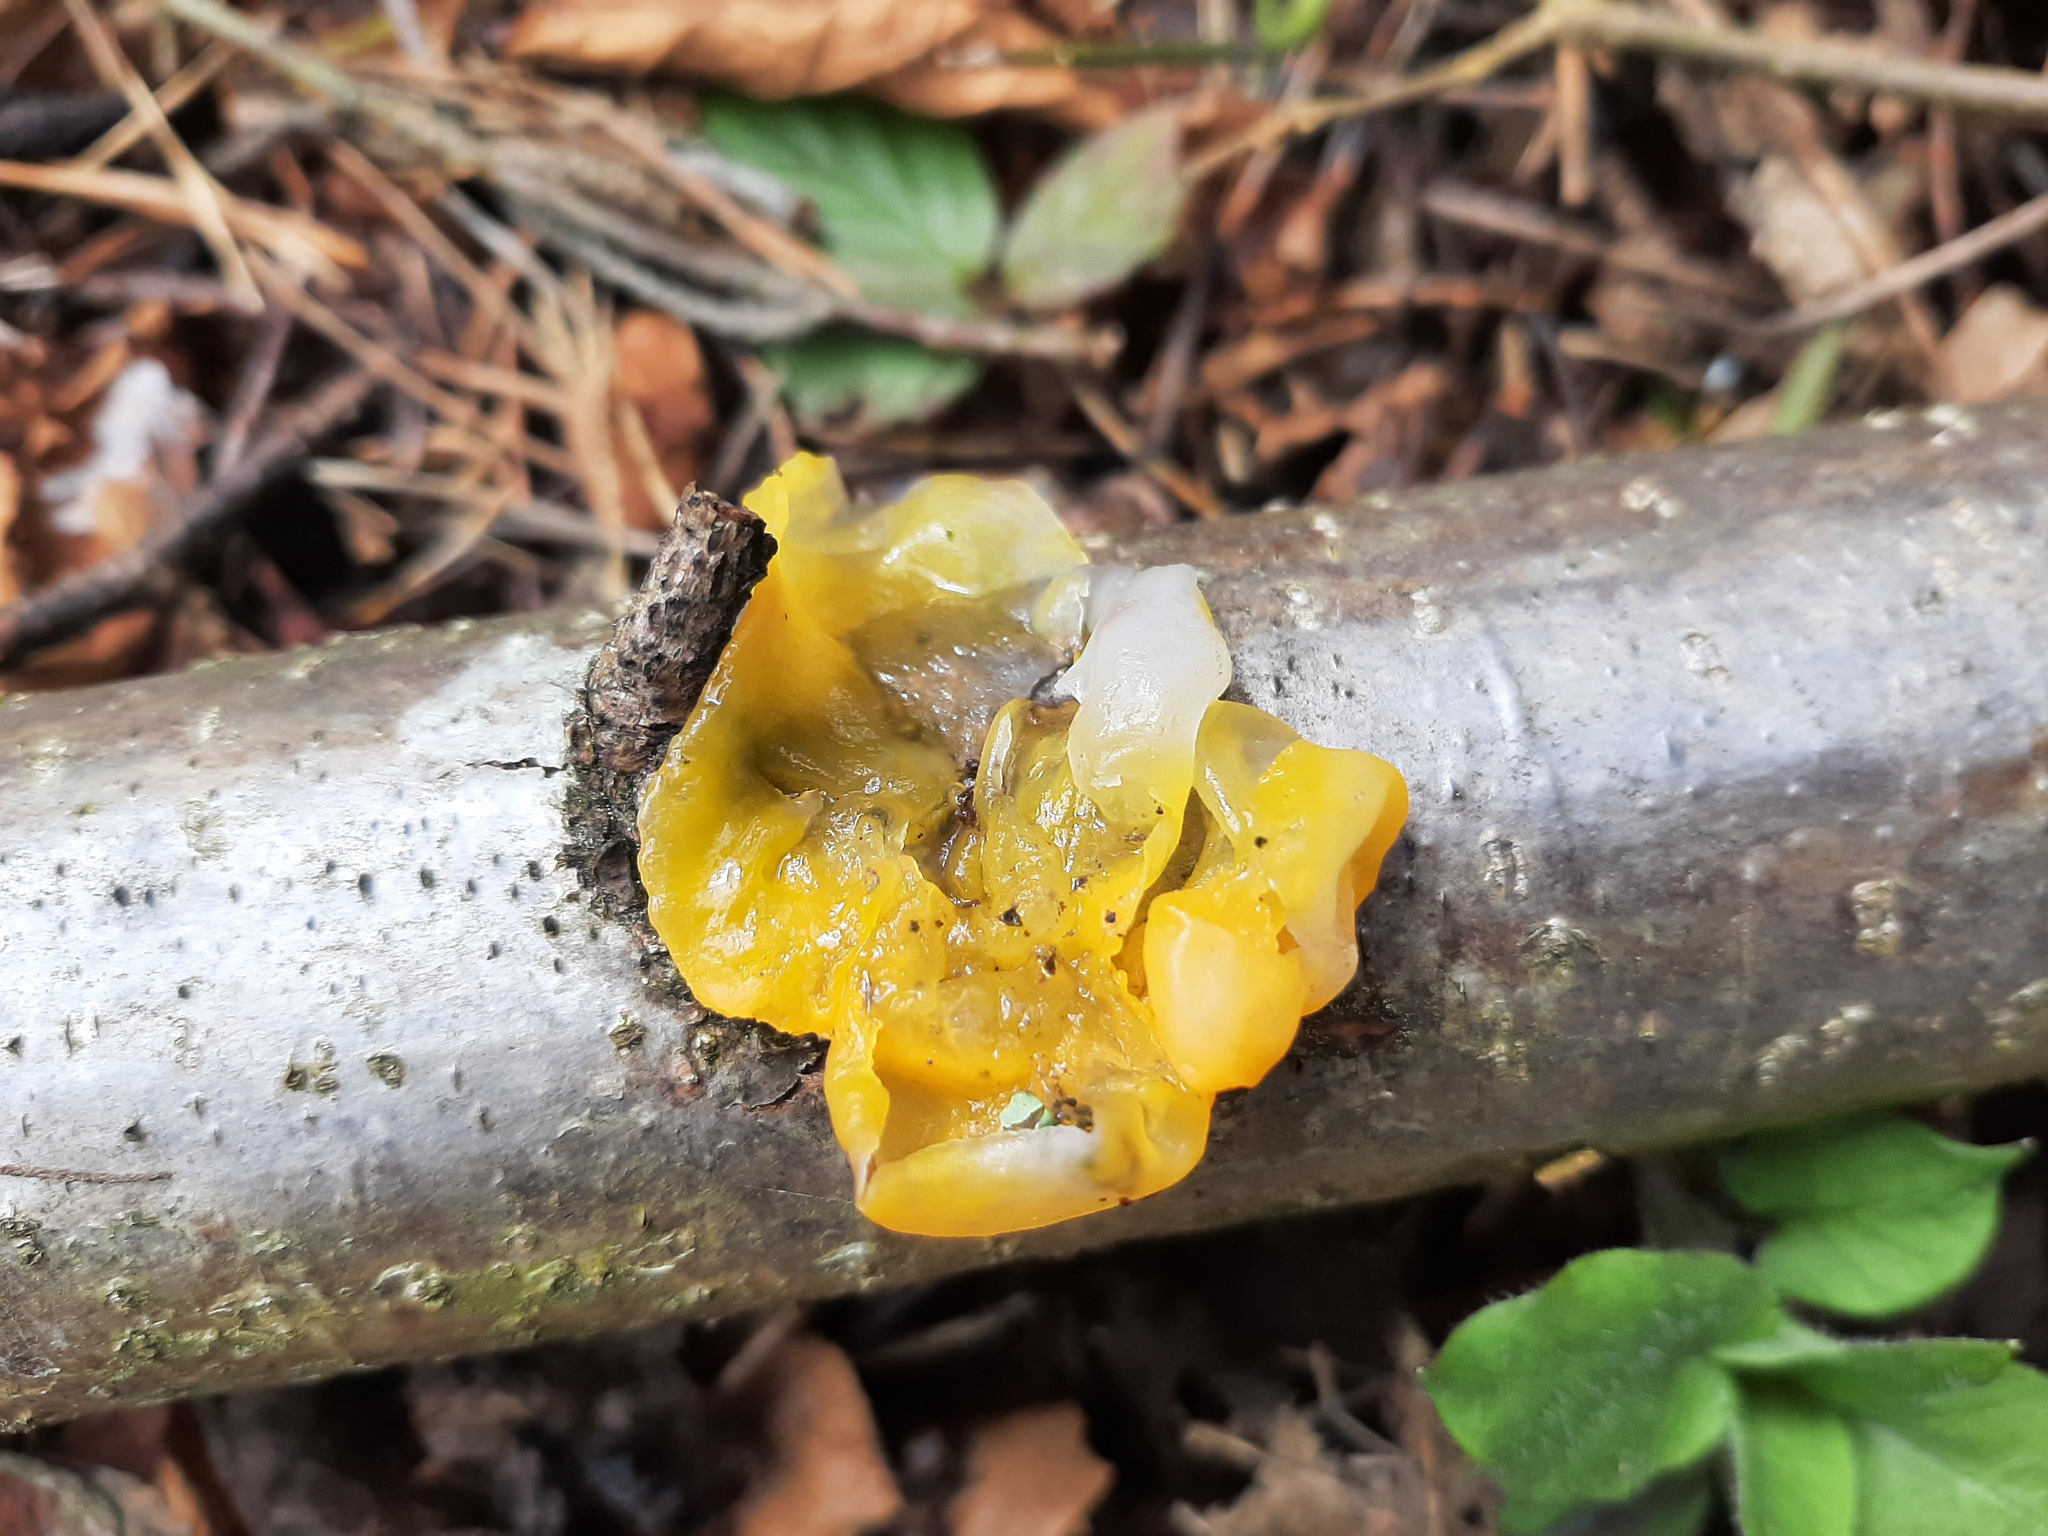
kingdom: Fungi
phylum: Basidiomycota
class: Tremellomycetes
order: Tremellales
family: Tremellaceae
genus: Tremella
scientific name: Tremella mesenterica
